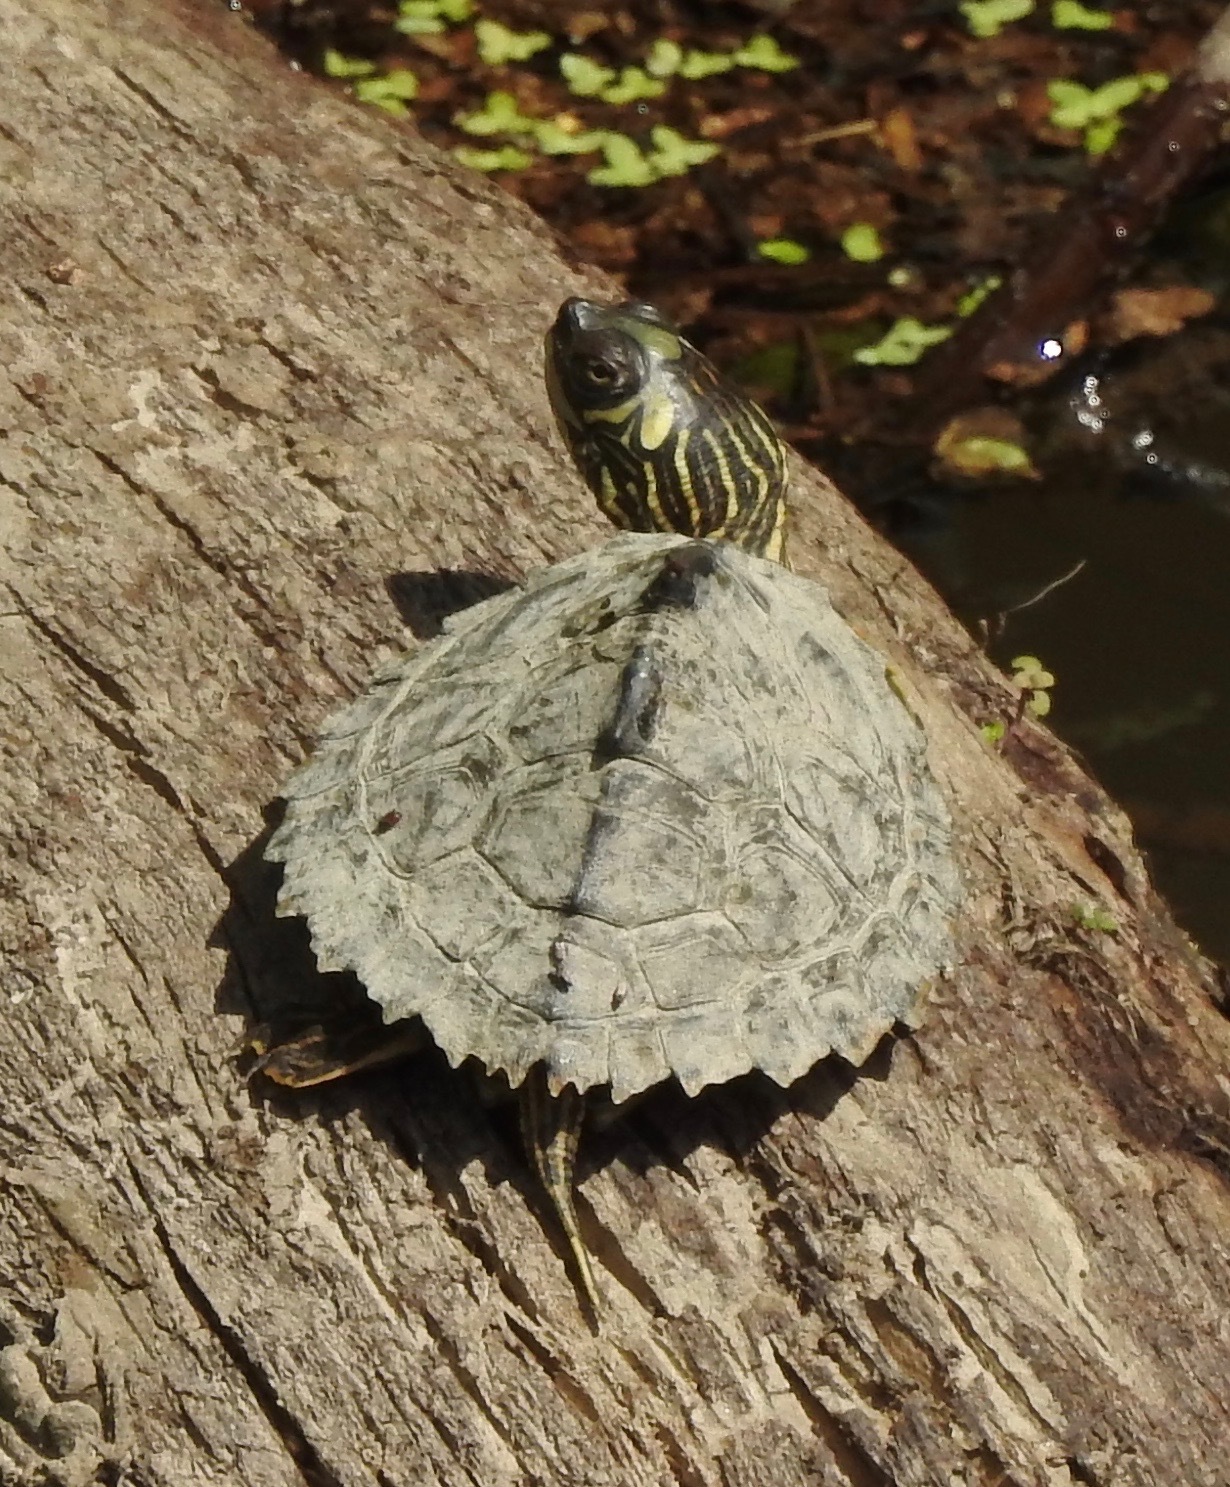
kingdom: Animalia
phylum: Chordata
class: Testudines
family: Emydidae
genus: Graptemys
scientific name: Graptemys pearlensis
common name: Pearl river map turtle
